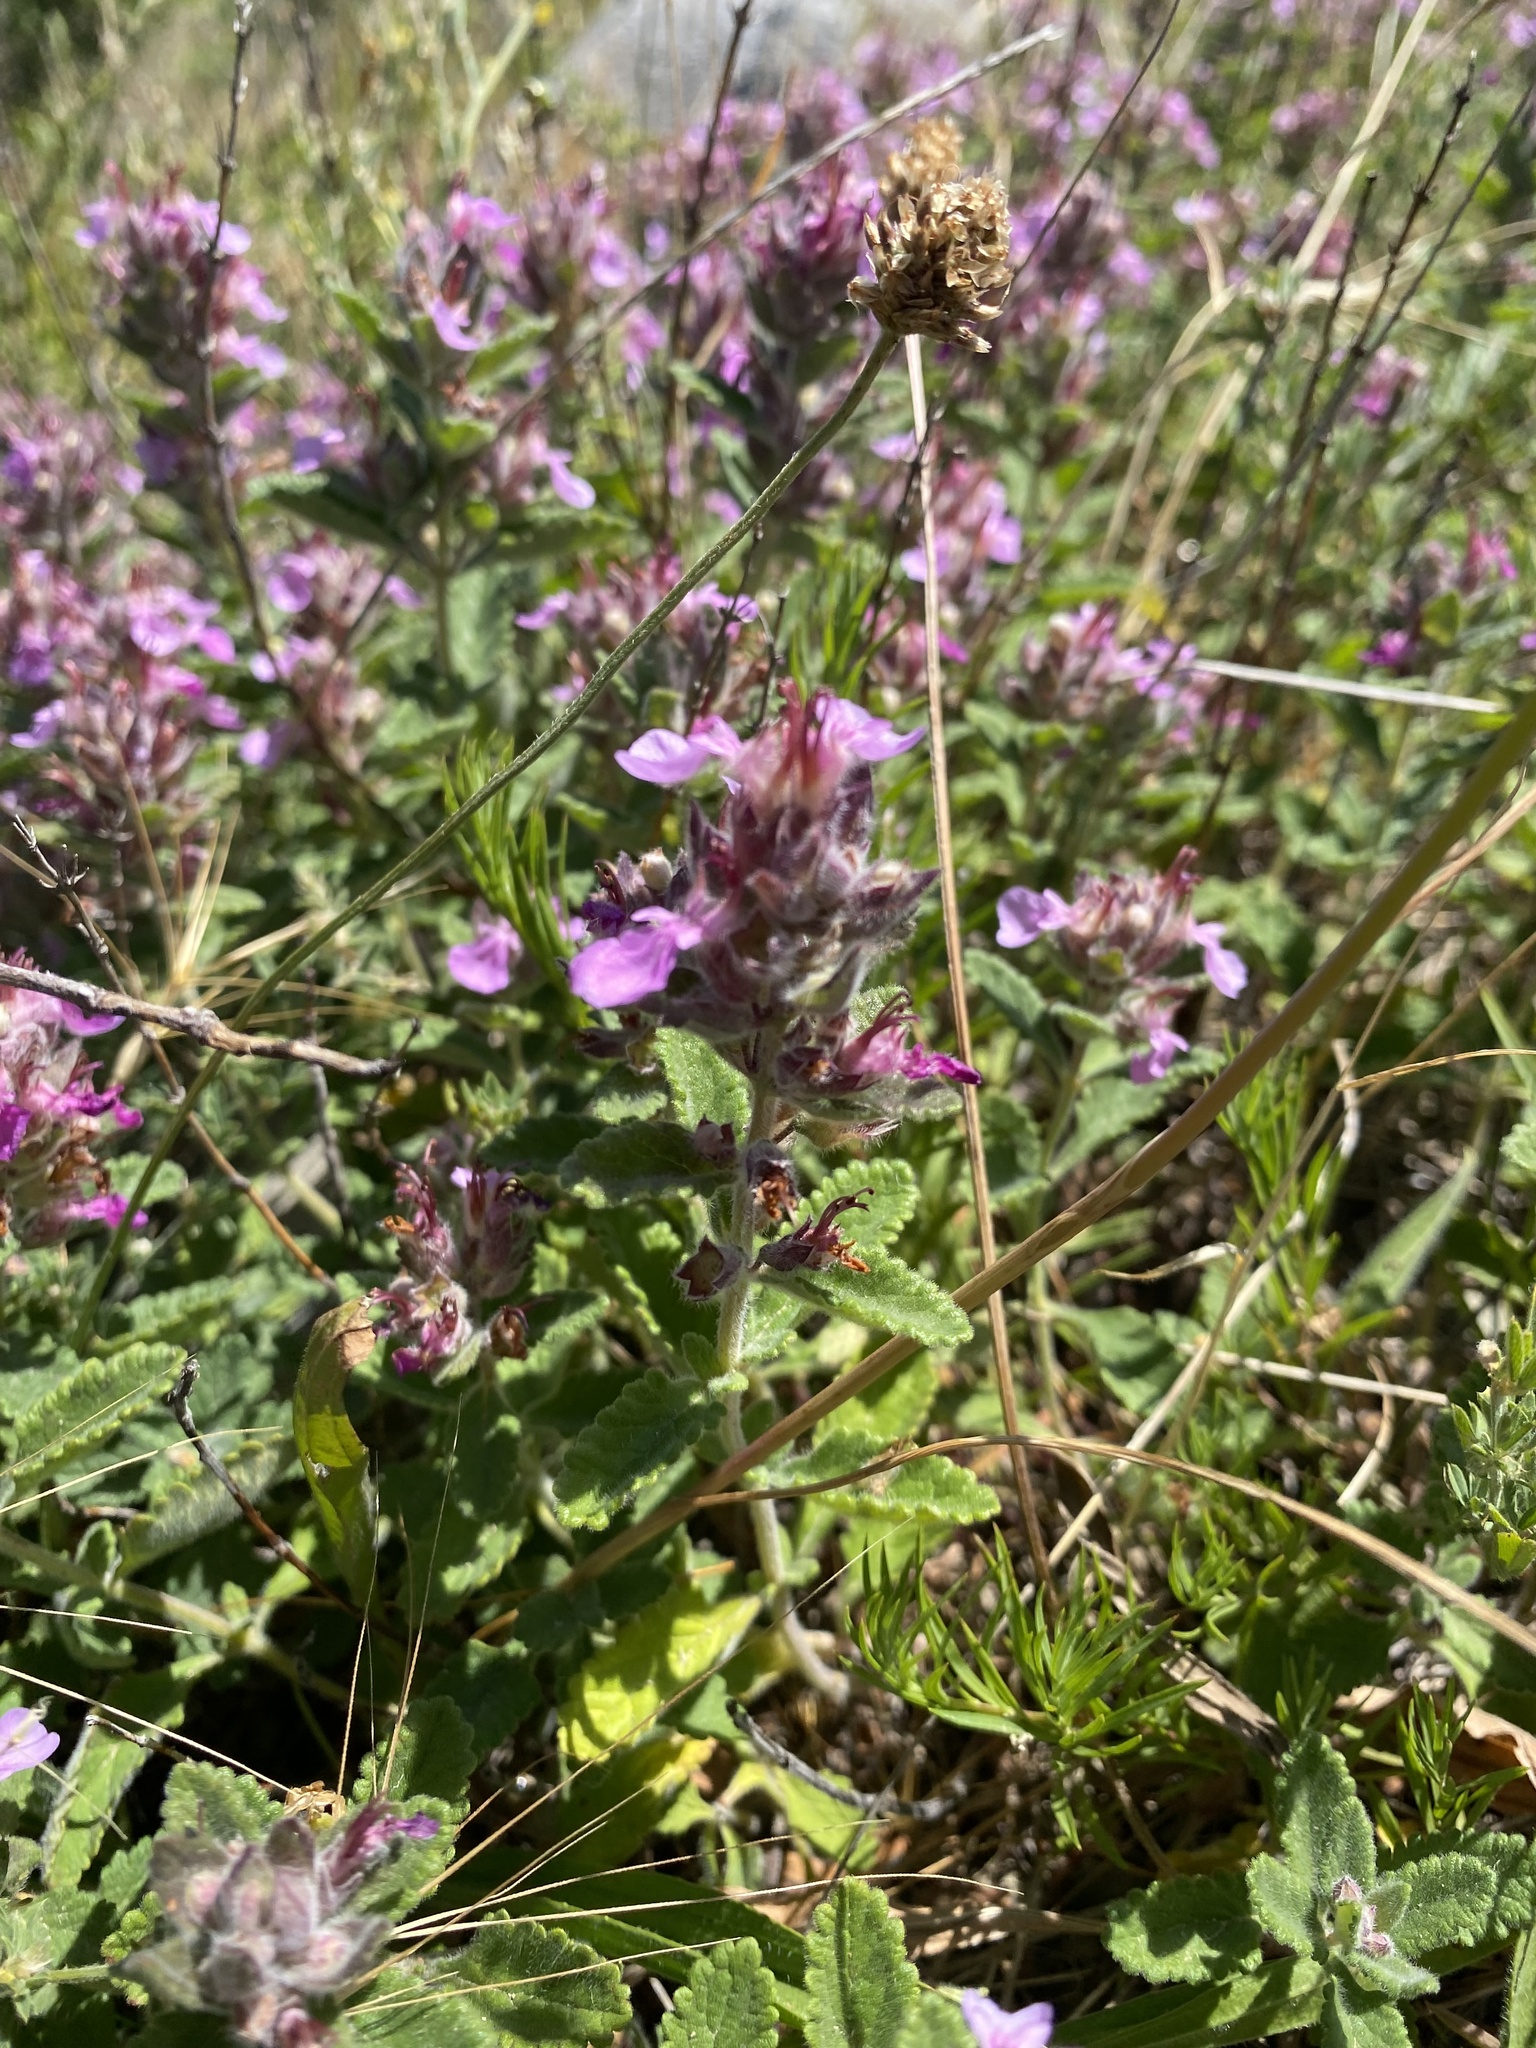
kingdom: Plantae
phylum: Tracheophyta
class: Magnoliopsida
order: Lamiales
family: Lamiaceae
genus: Teucrium
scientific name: Teucrium chamaedrys
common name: Wall germander
